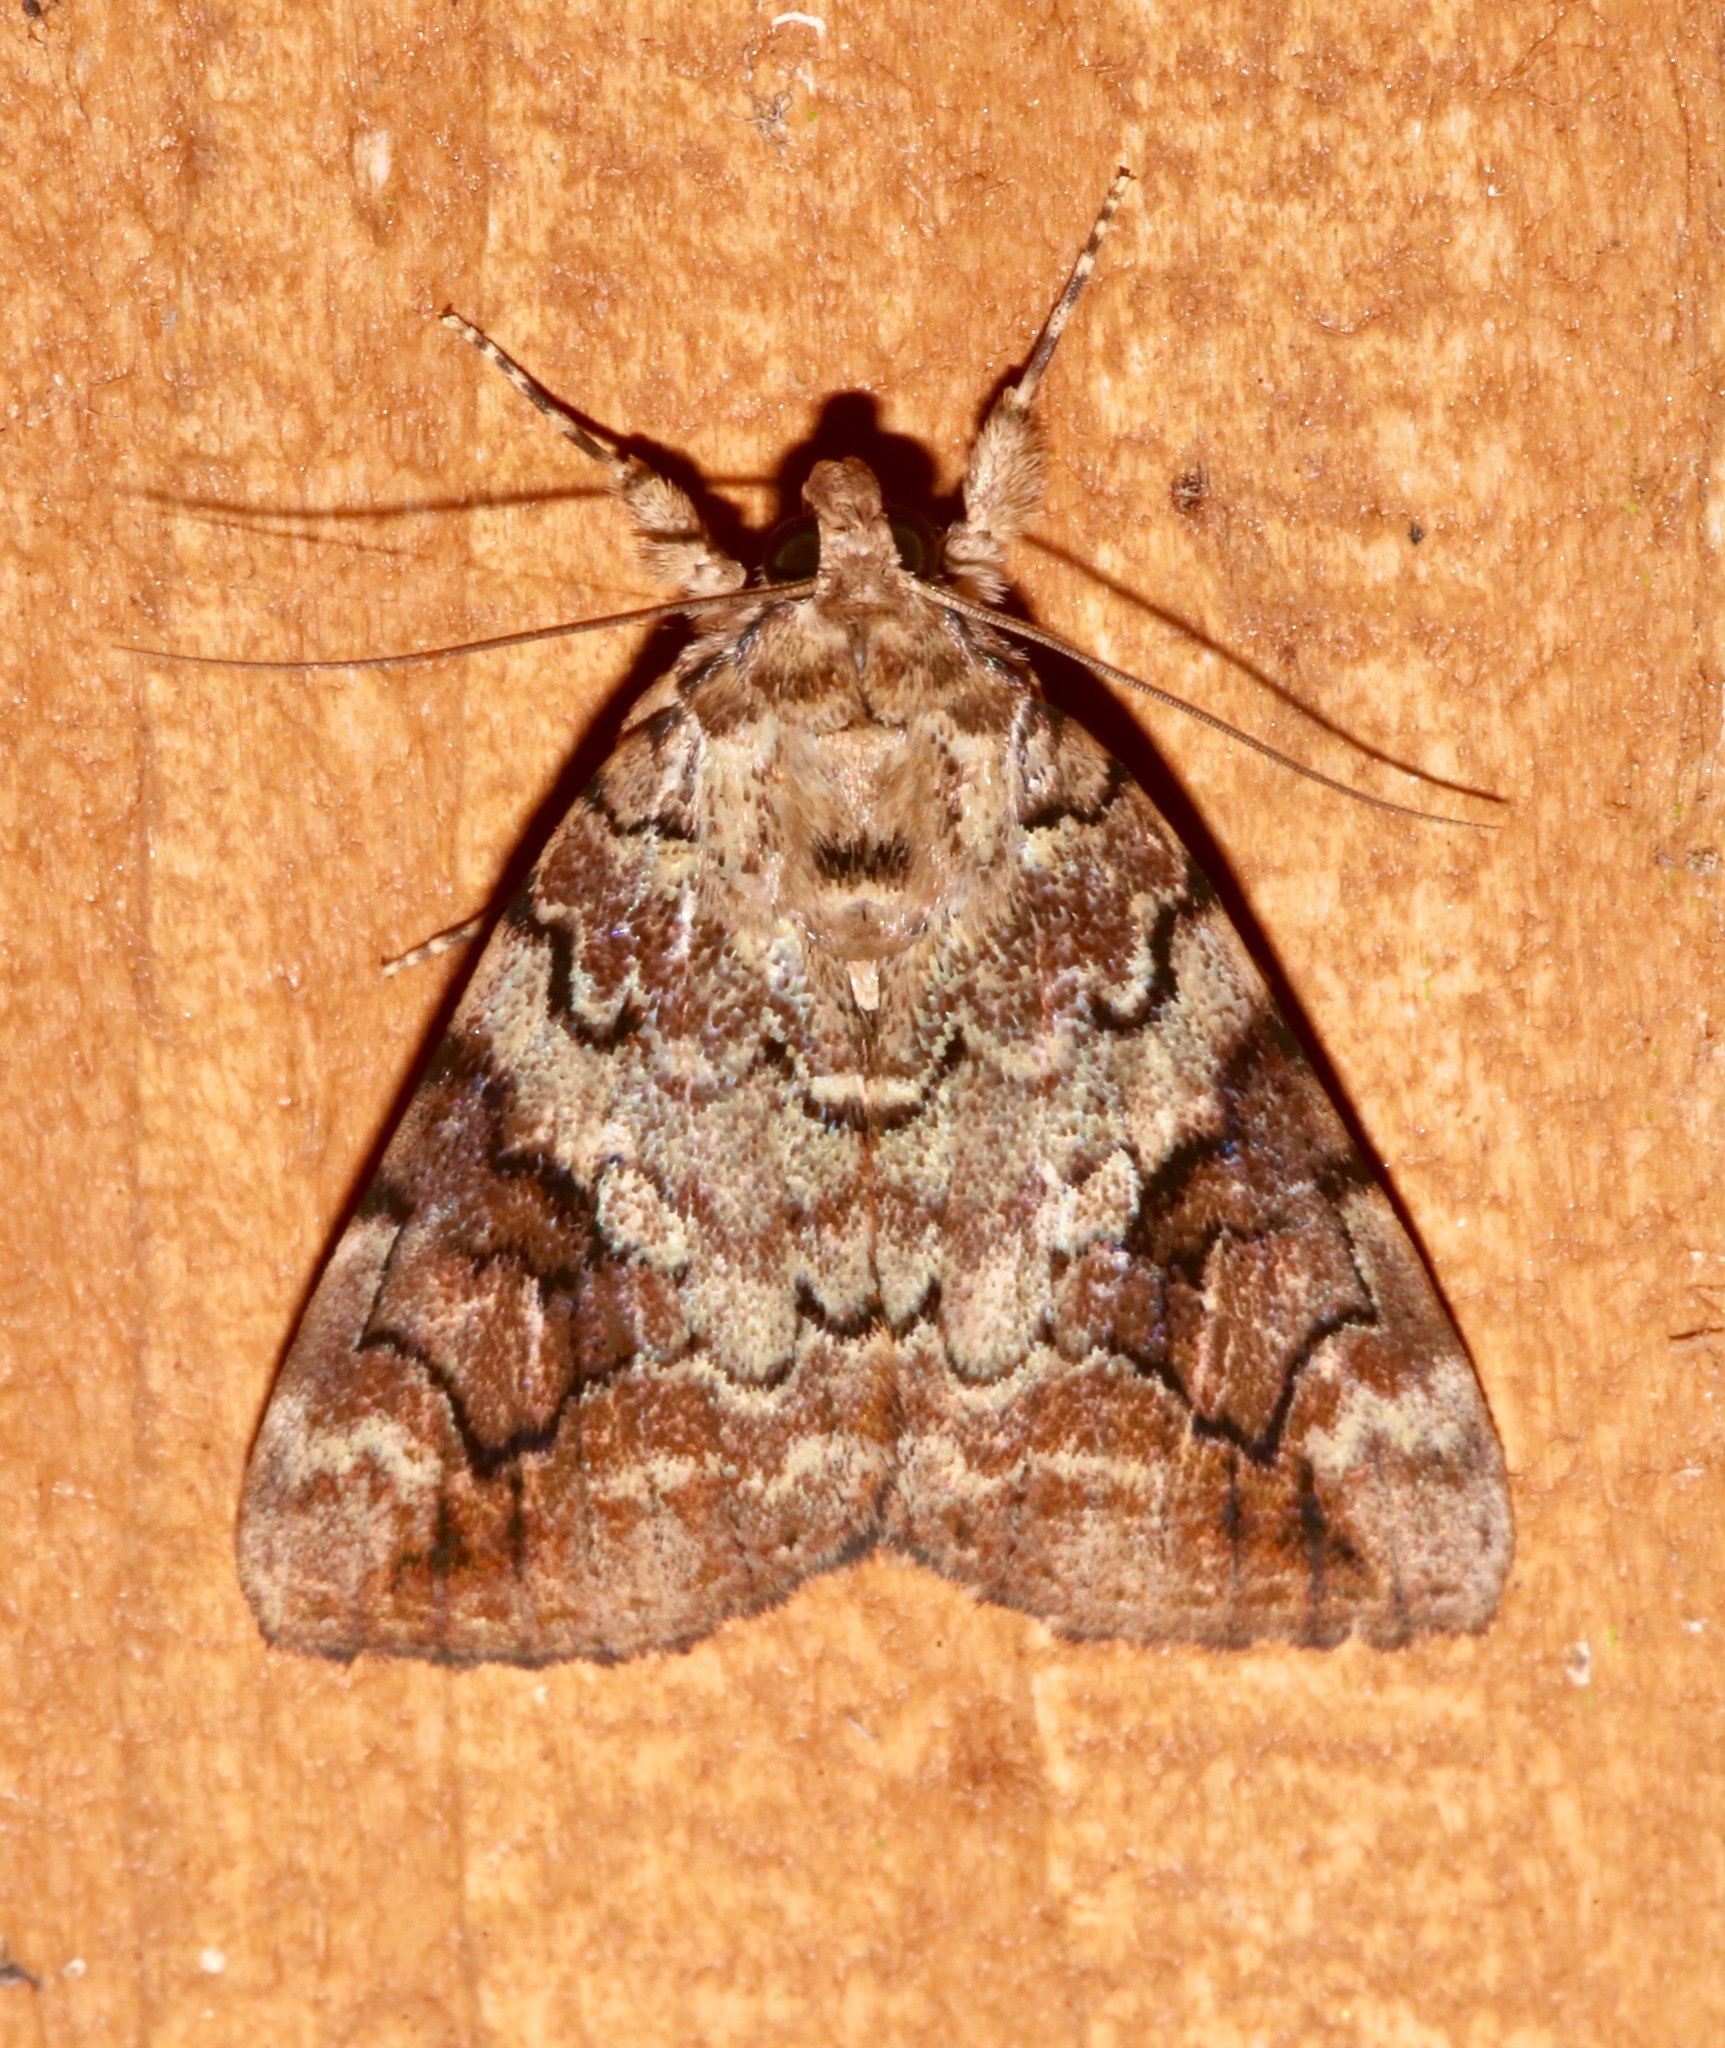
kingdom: Animalia
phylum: Arthropoda
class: Insecta
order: Lepidoptera
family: Erebidae
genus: Catocala
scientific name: Catocala micronympha
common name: Little nymph underwing
